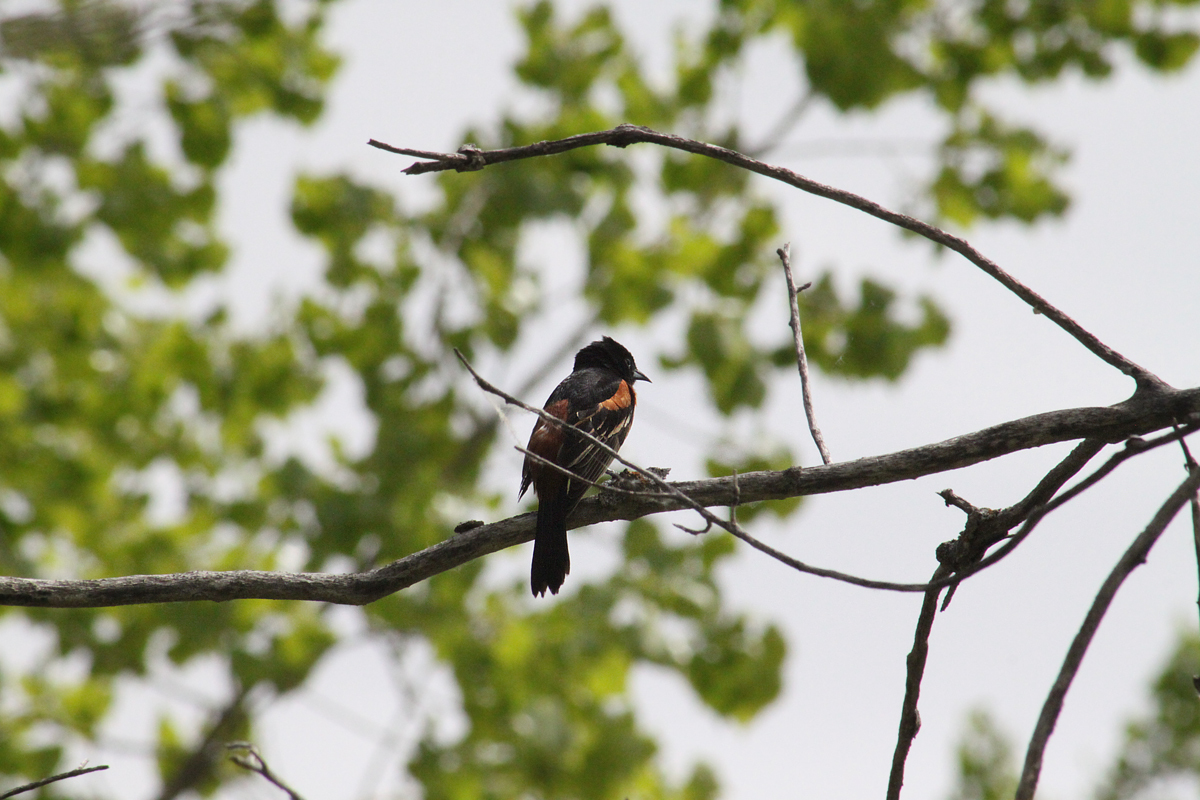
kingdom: Animalia
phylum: Chordata
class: Aves
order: Passeriformes
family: Icteridae
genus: Icterus
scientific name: Icterus spurius
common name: Orchard oriole
